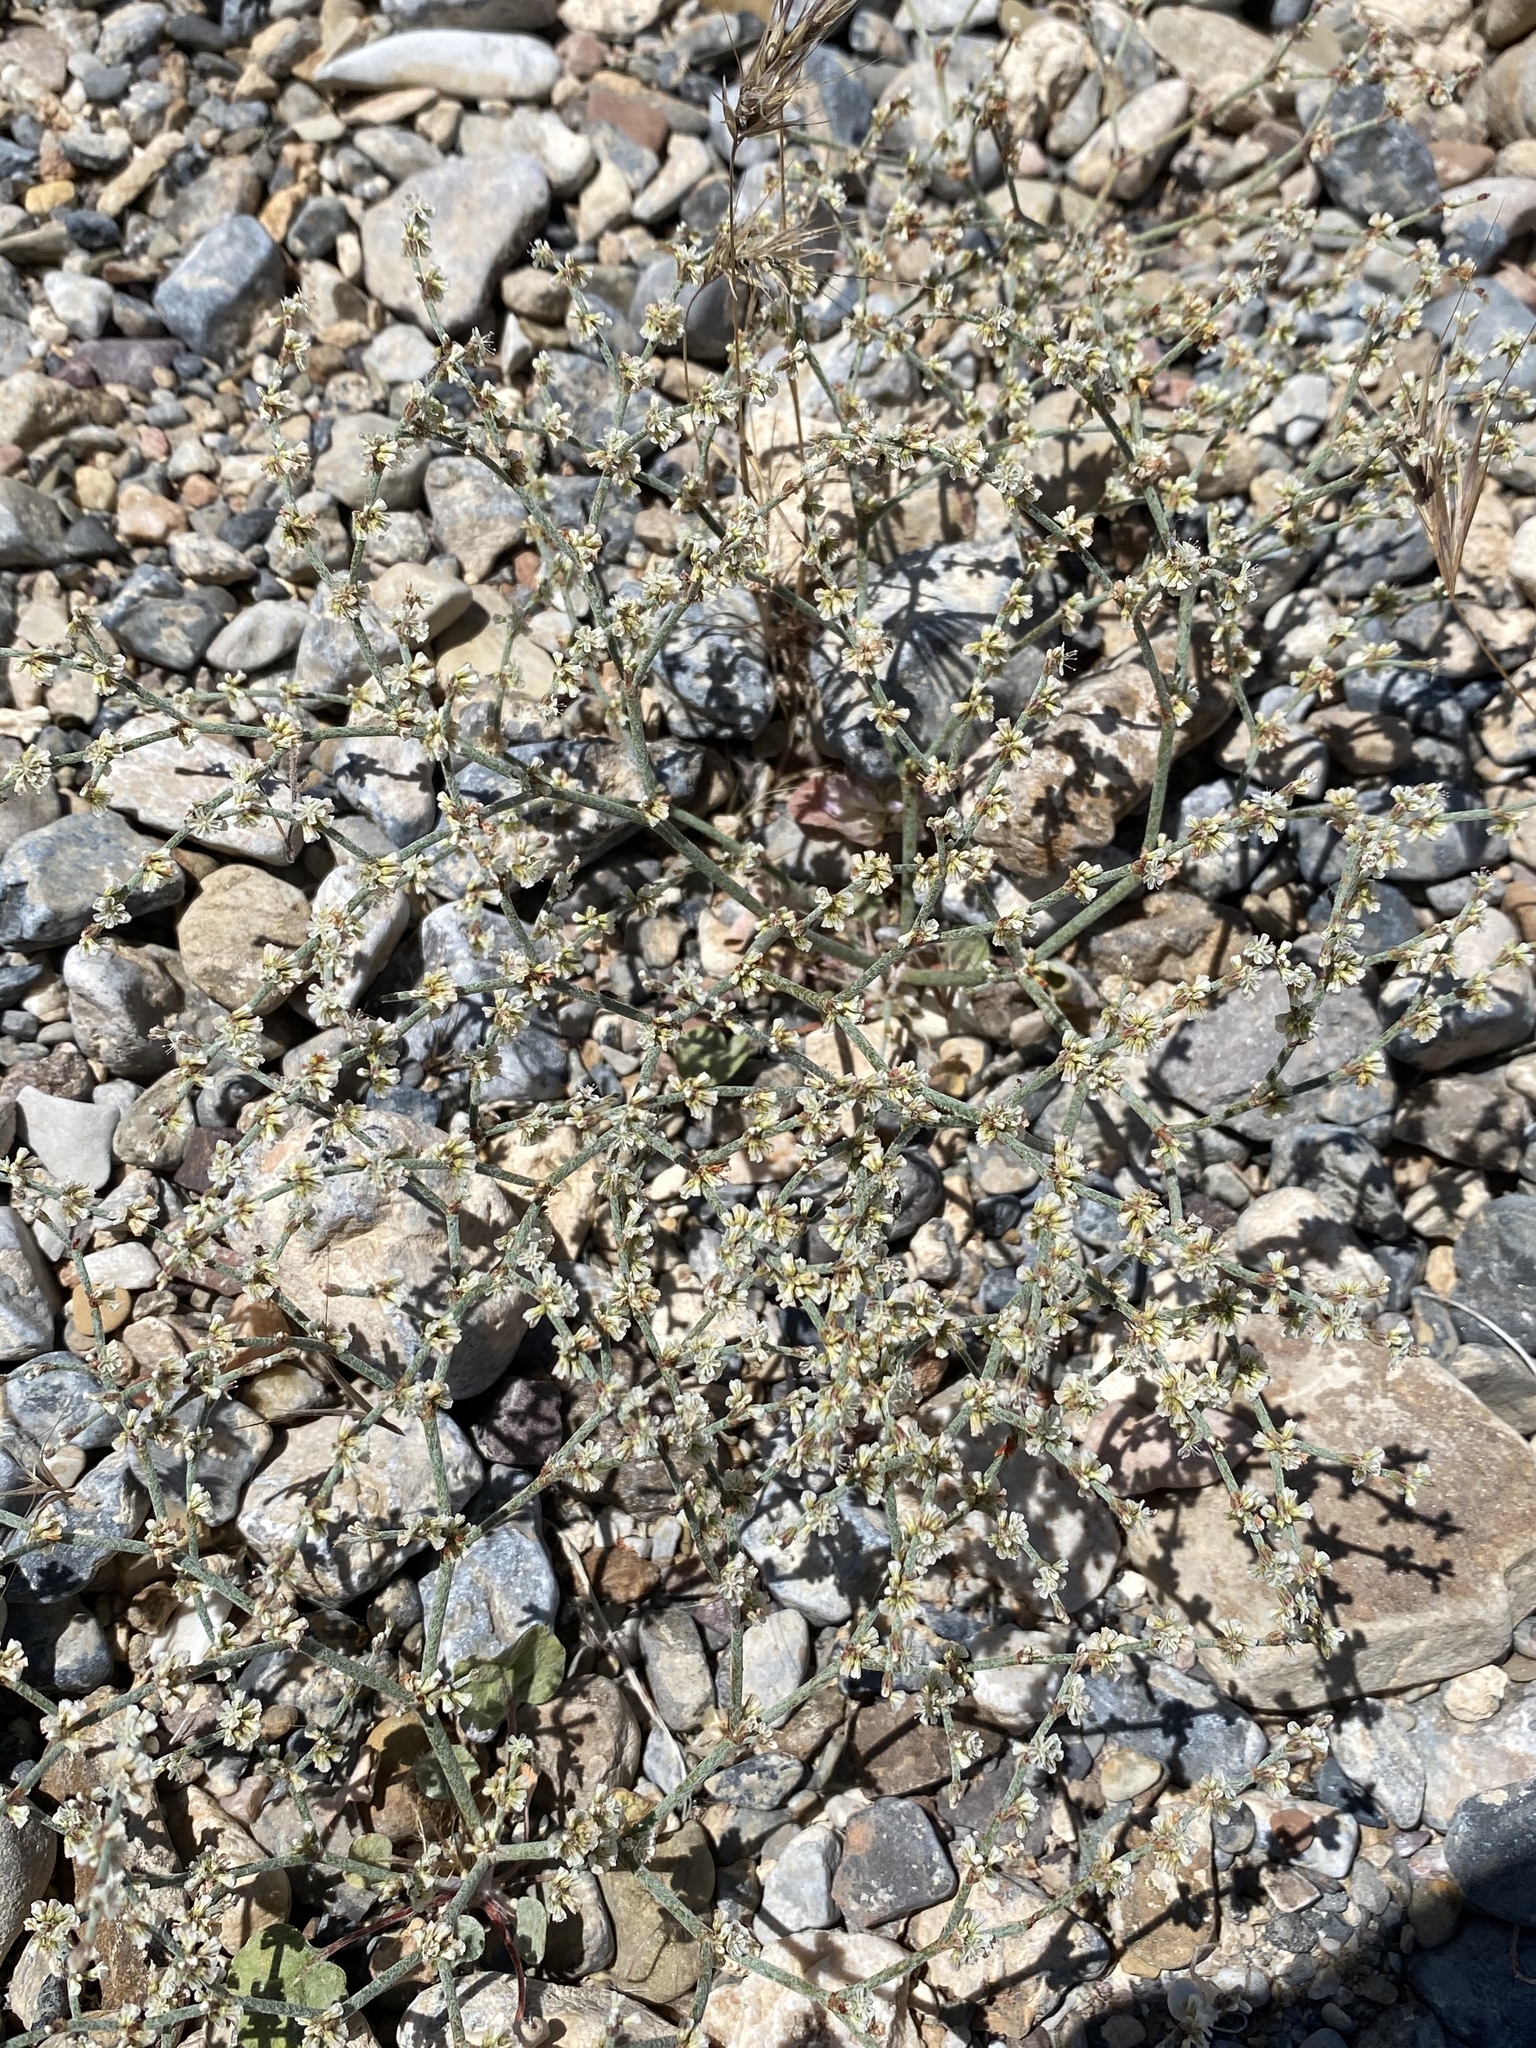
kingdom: Plantae
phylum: Tracheophyta
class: Magnoliopsida
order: Caryophyllales
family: Polygonaceae
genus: Eriogonum
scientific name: Eriogonum palmerianum
